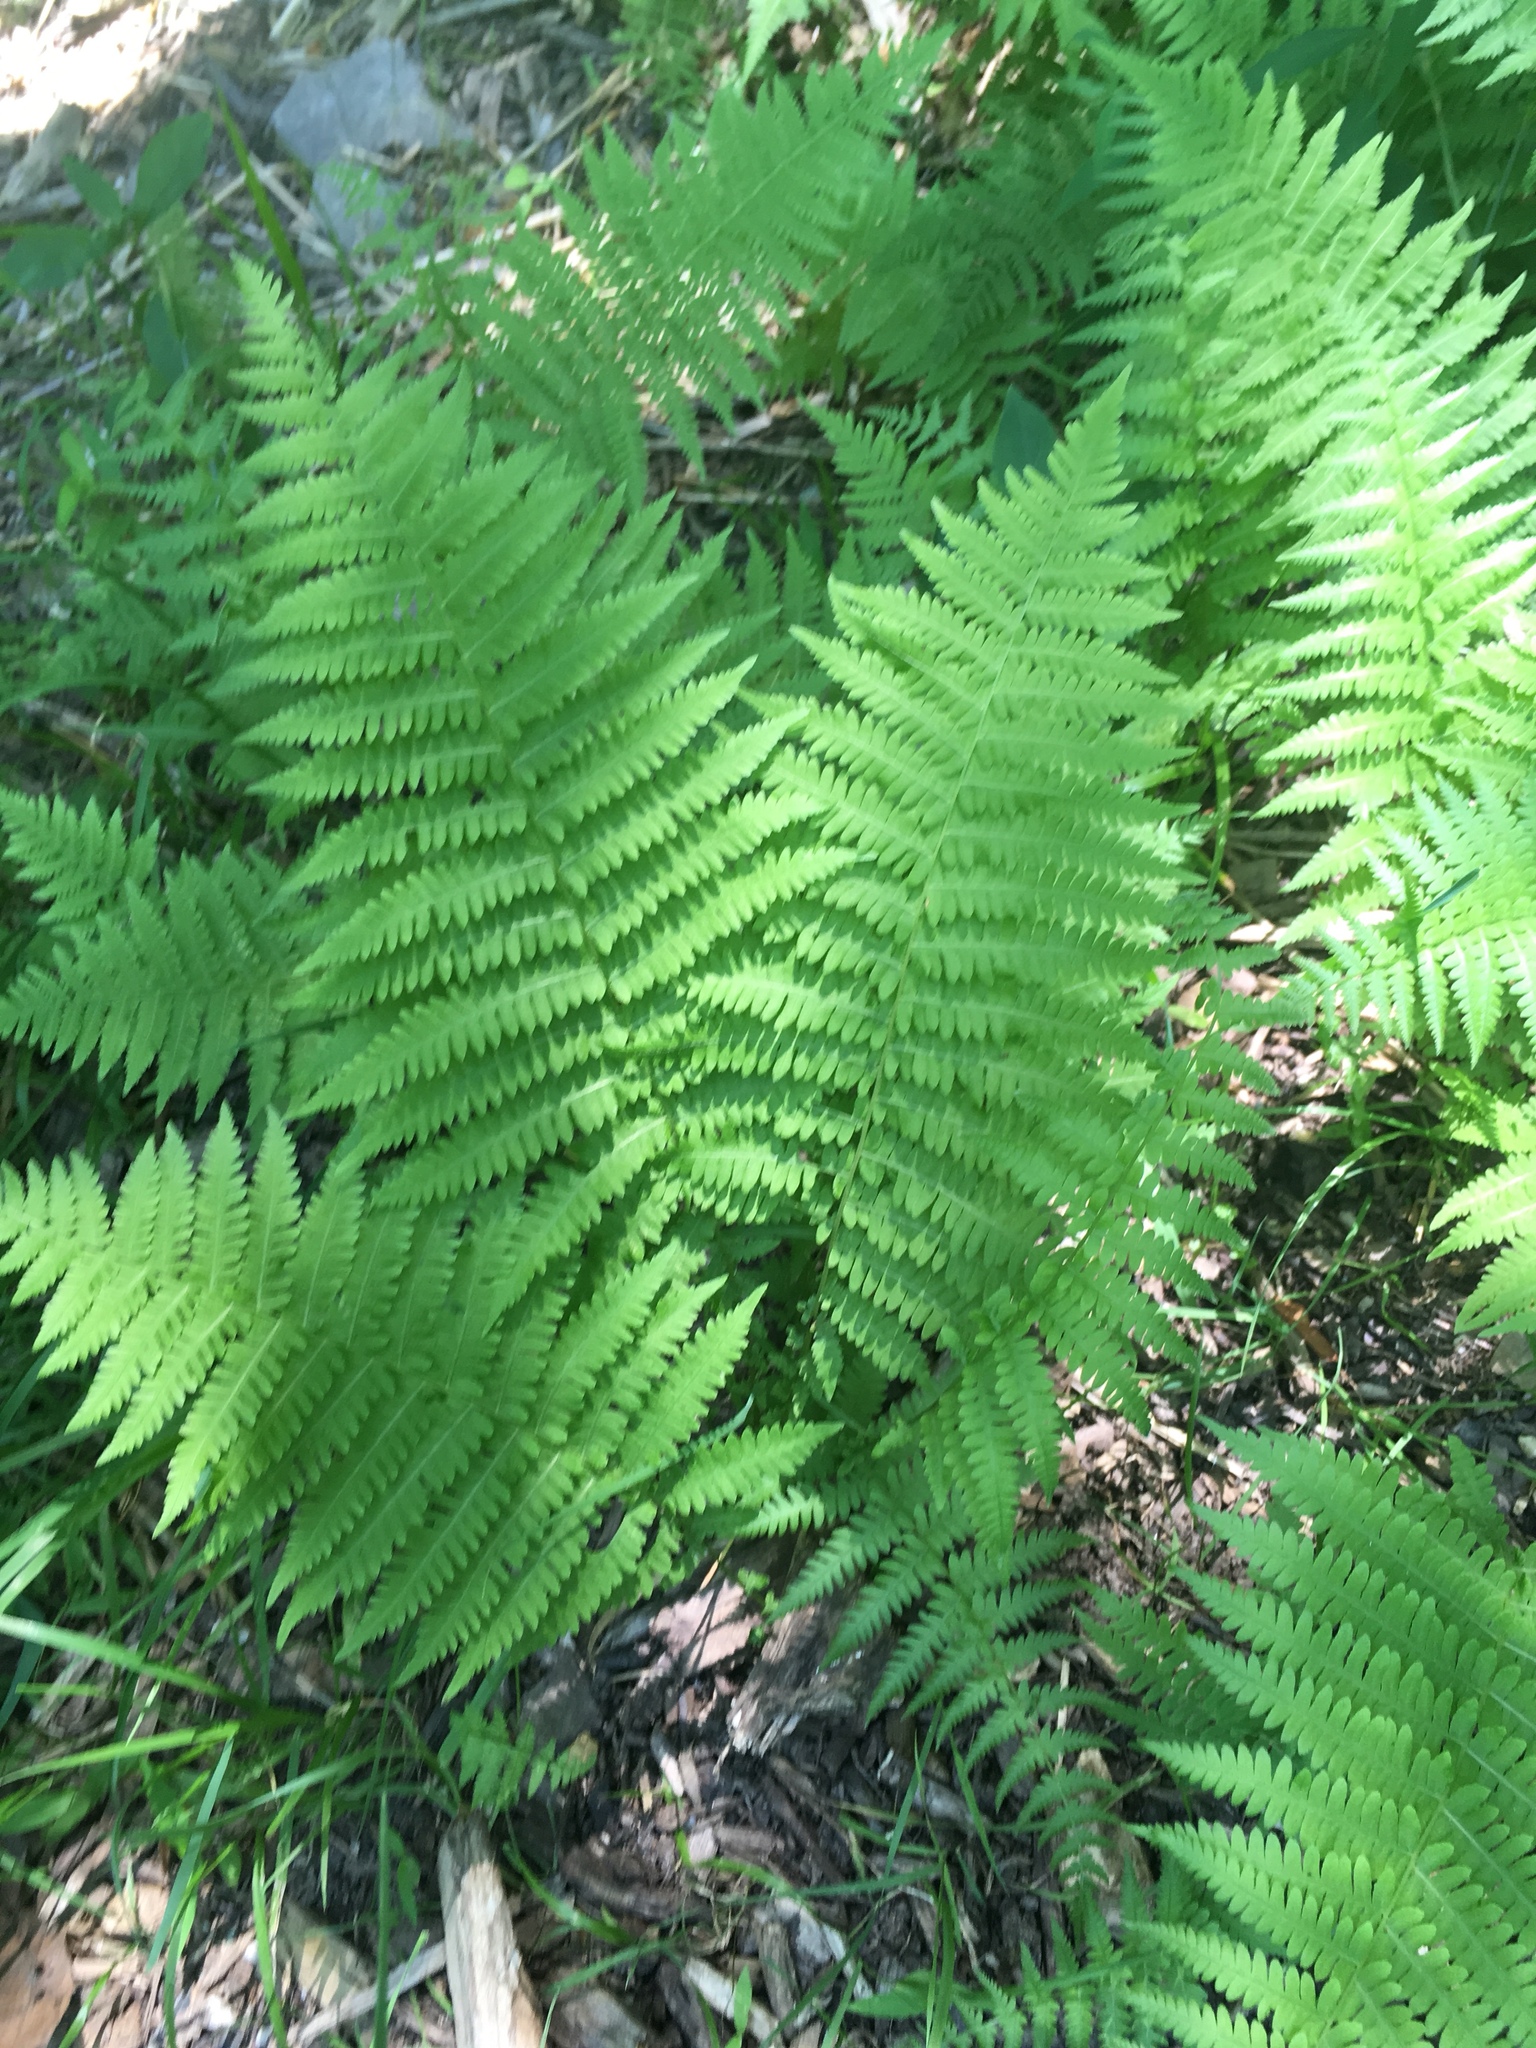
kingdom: Plantae
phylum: Tracheophyta
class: Polypodiopsida
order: Polypodiales
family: Thelypteridaceae
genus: Amauropelta
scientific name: Amauropelta noveboracensis
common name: New york fern
